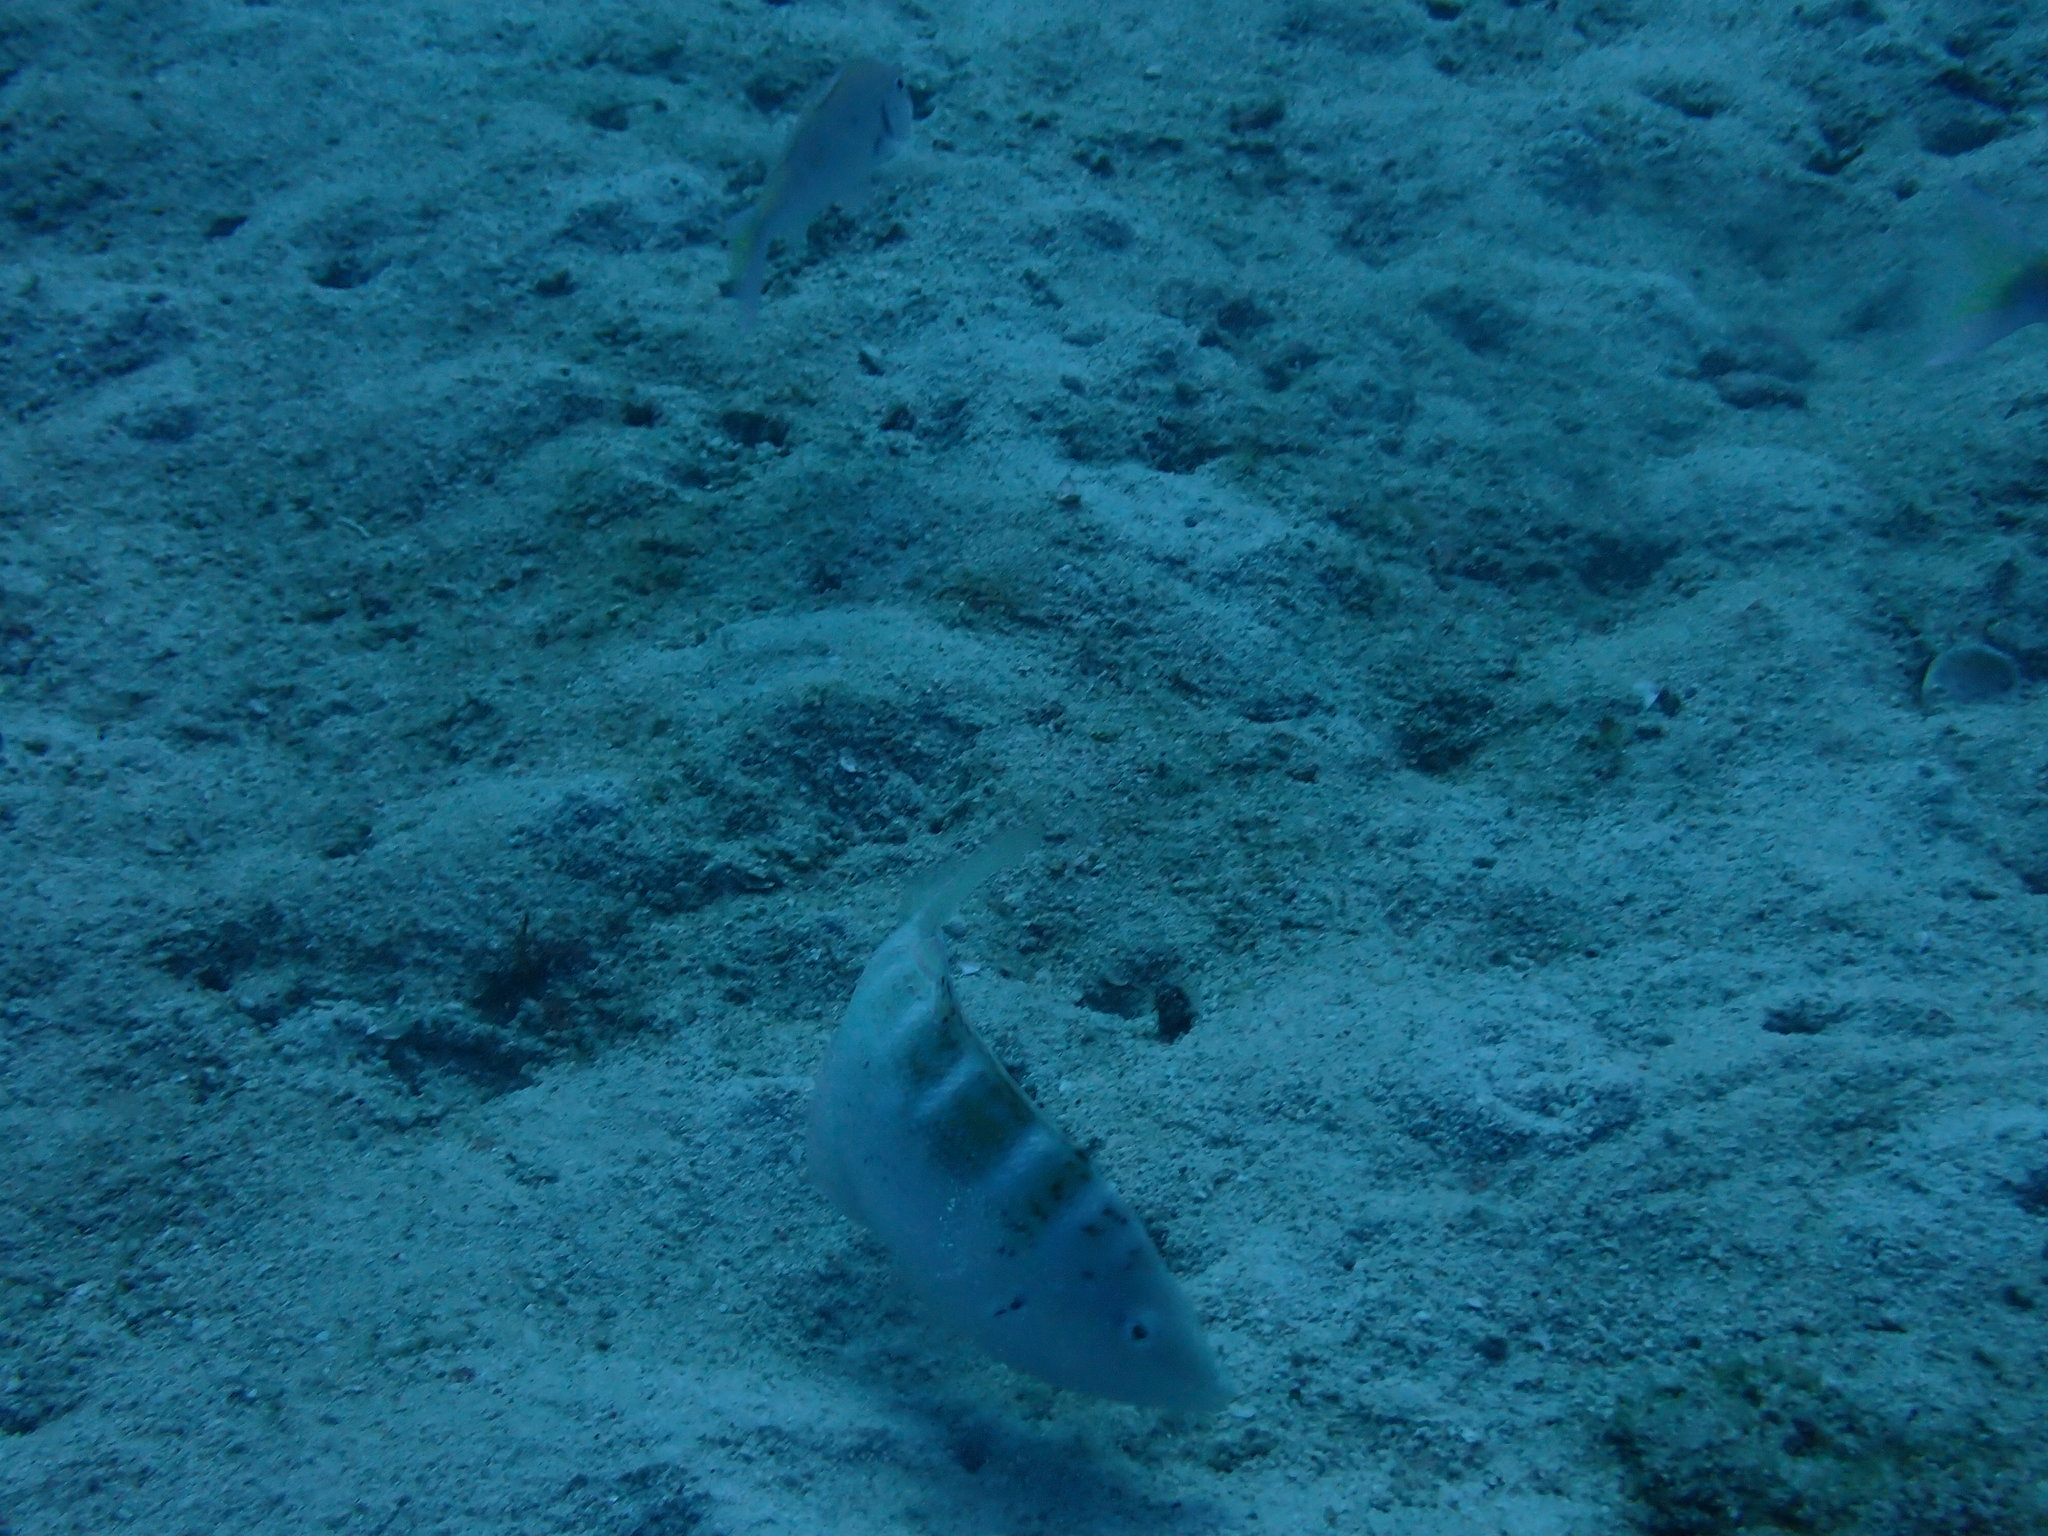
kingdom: Animalia
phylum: Chordata
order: Perciformes
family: Labridae
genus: Coris
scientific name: Coris batuensis
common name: Batu coris
